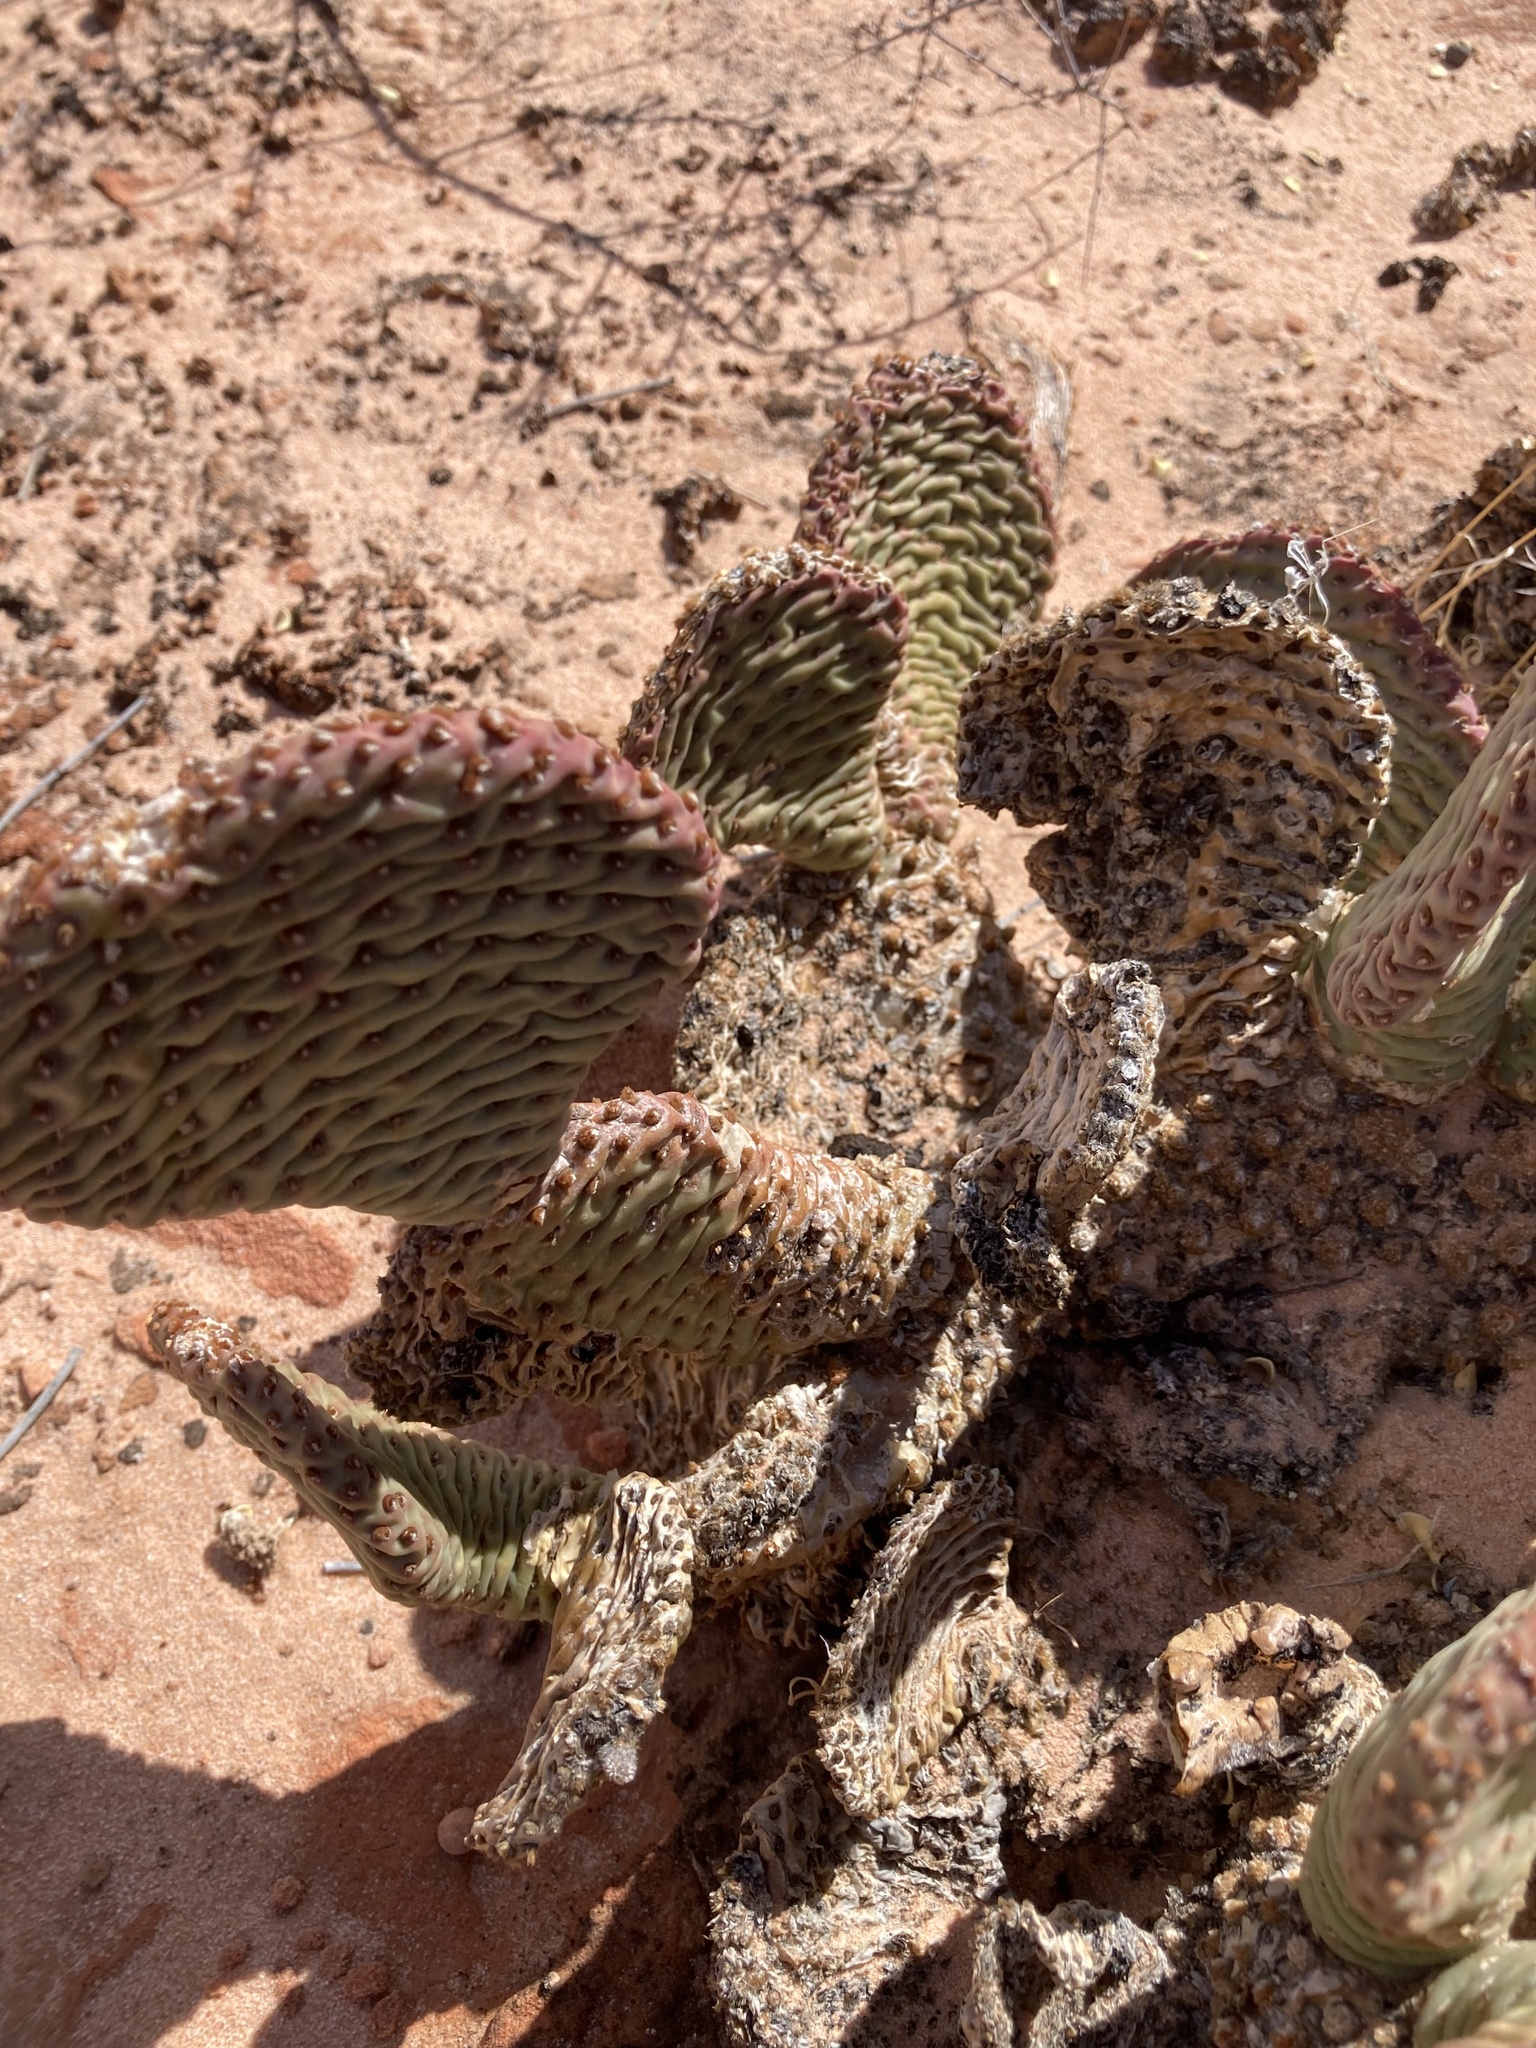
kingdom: Plantae
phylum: Tracheophyta
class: Magnoliopsida
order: Caryophyllales
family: Cactaceae
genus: Opuntia
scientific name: Opuntia basilaris
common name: Beavertail prickly-pear
